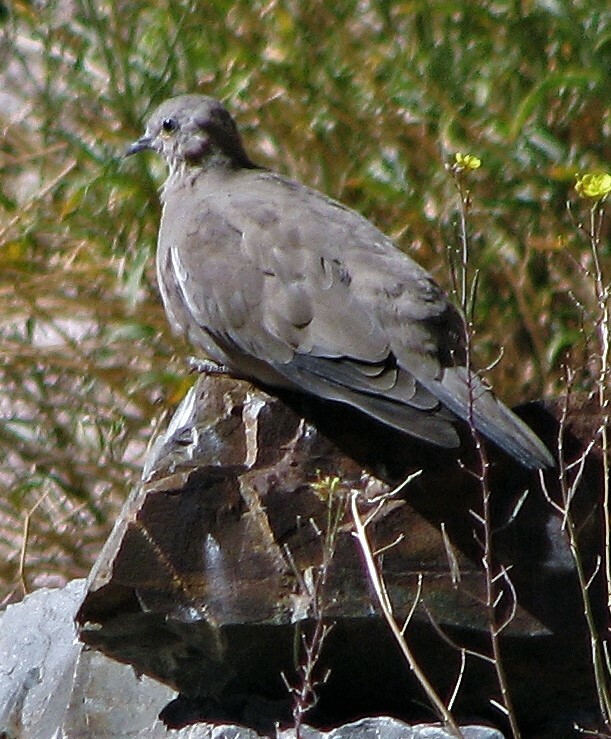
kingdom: Animalia
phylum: Chordata
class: Aves
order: Columbiformes
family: Columbidae
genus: Metriopelia
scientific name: Metriopelia melanoptera
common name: Black-winged ground dove
